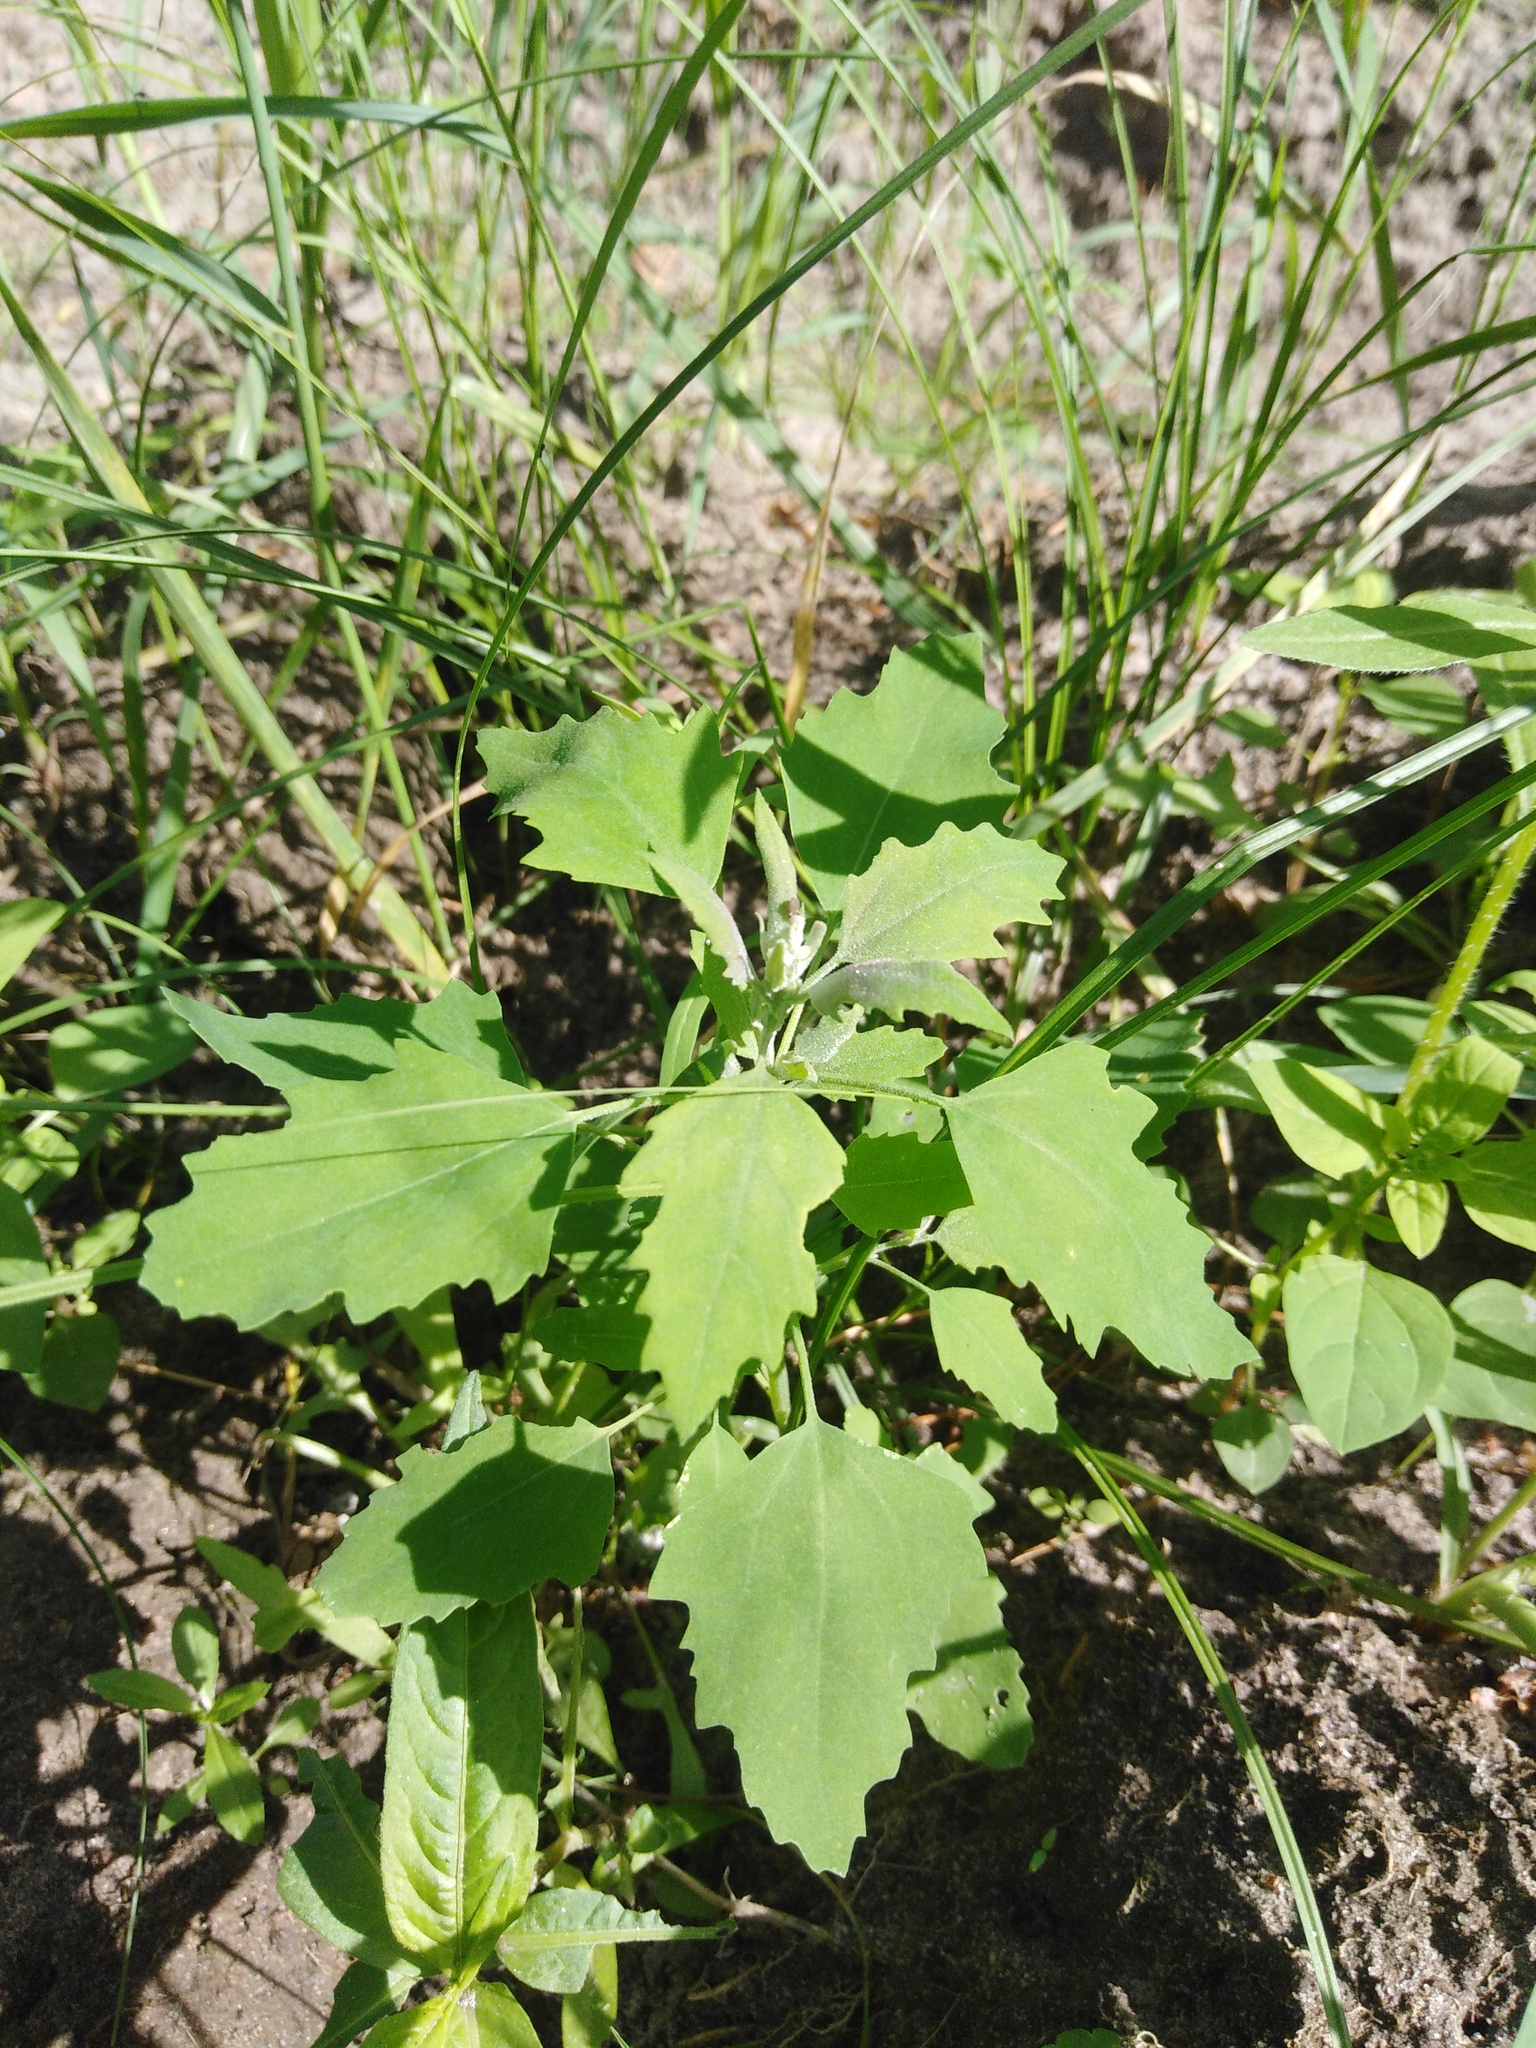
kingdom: Plantae
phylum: Tracheophyta
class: Magnoliopsida
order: Caryophyllales
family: Amaranthaceae
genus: Chenopodium
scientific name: Chenopodium album
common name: Fat-hen
